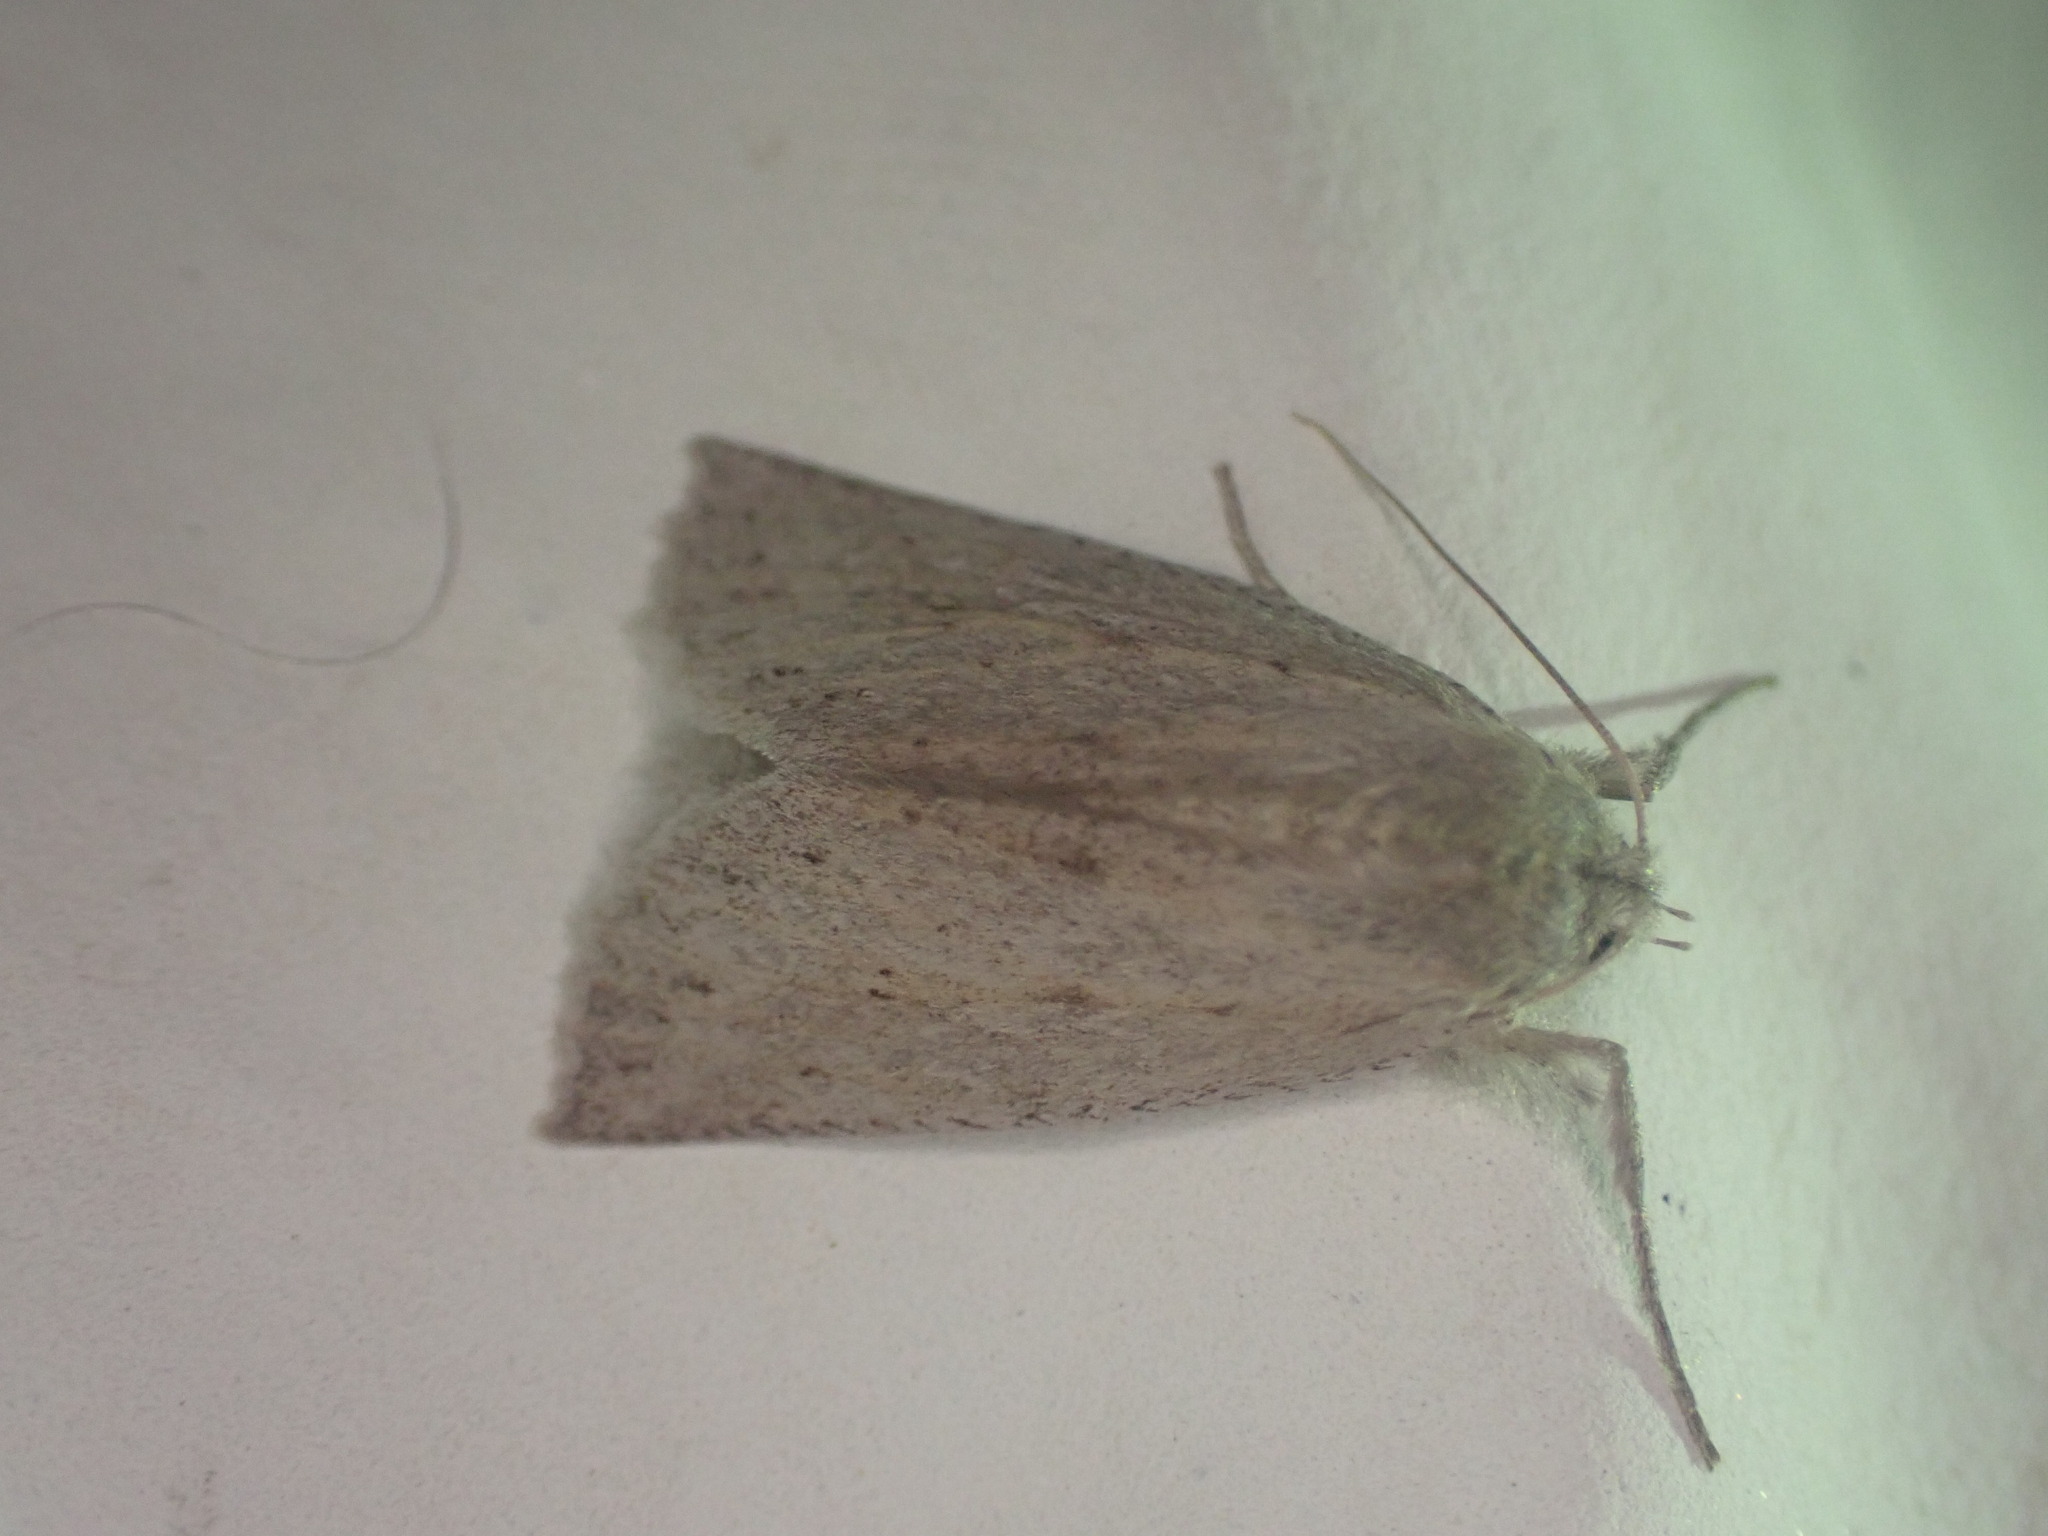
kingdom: Animalia
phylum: Arthropoda
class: Insecta
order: Lepidoptera
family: Geometridae
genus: Declana
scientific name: Declana leptomera
